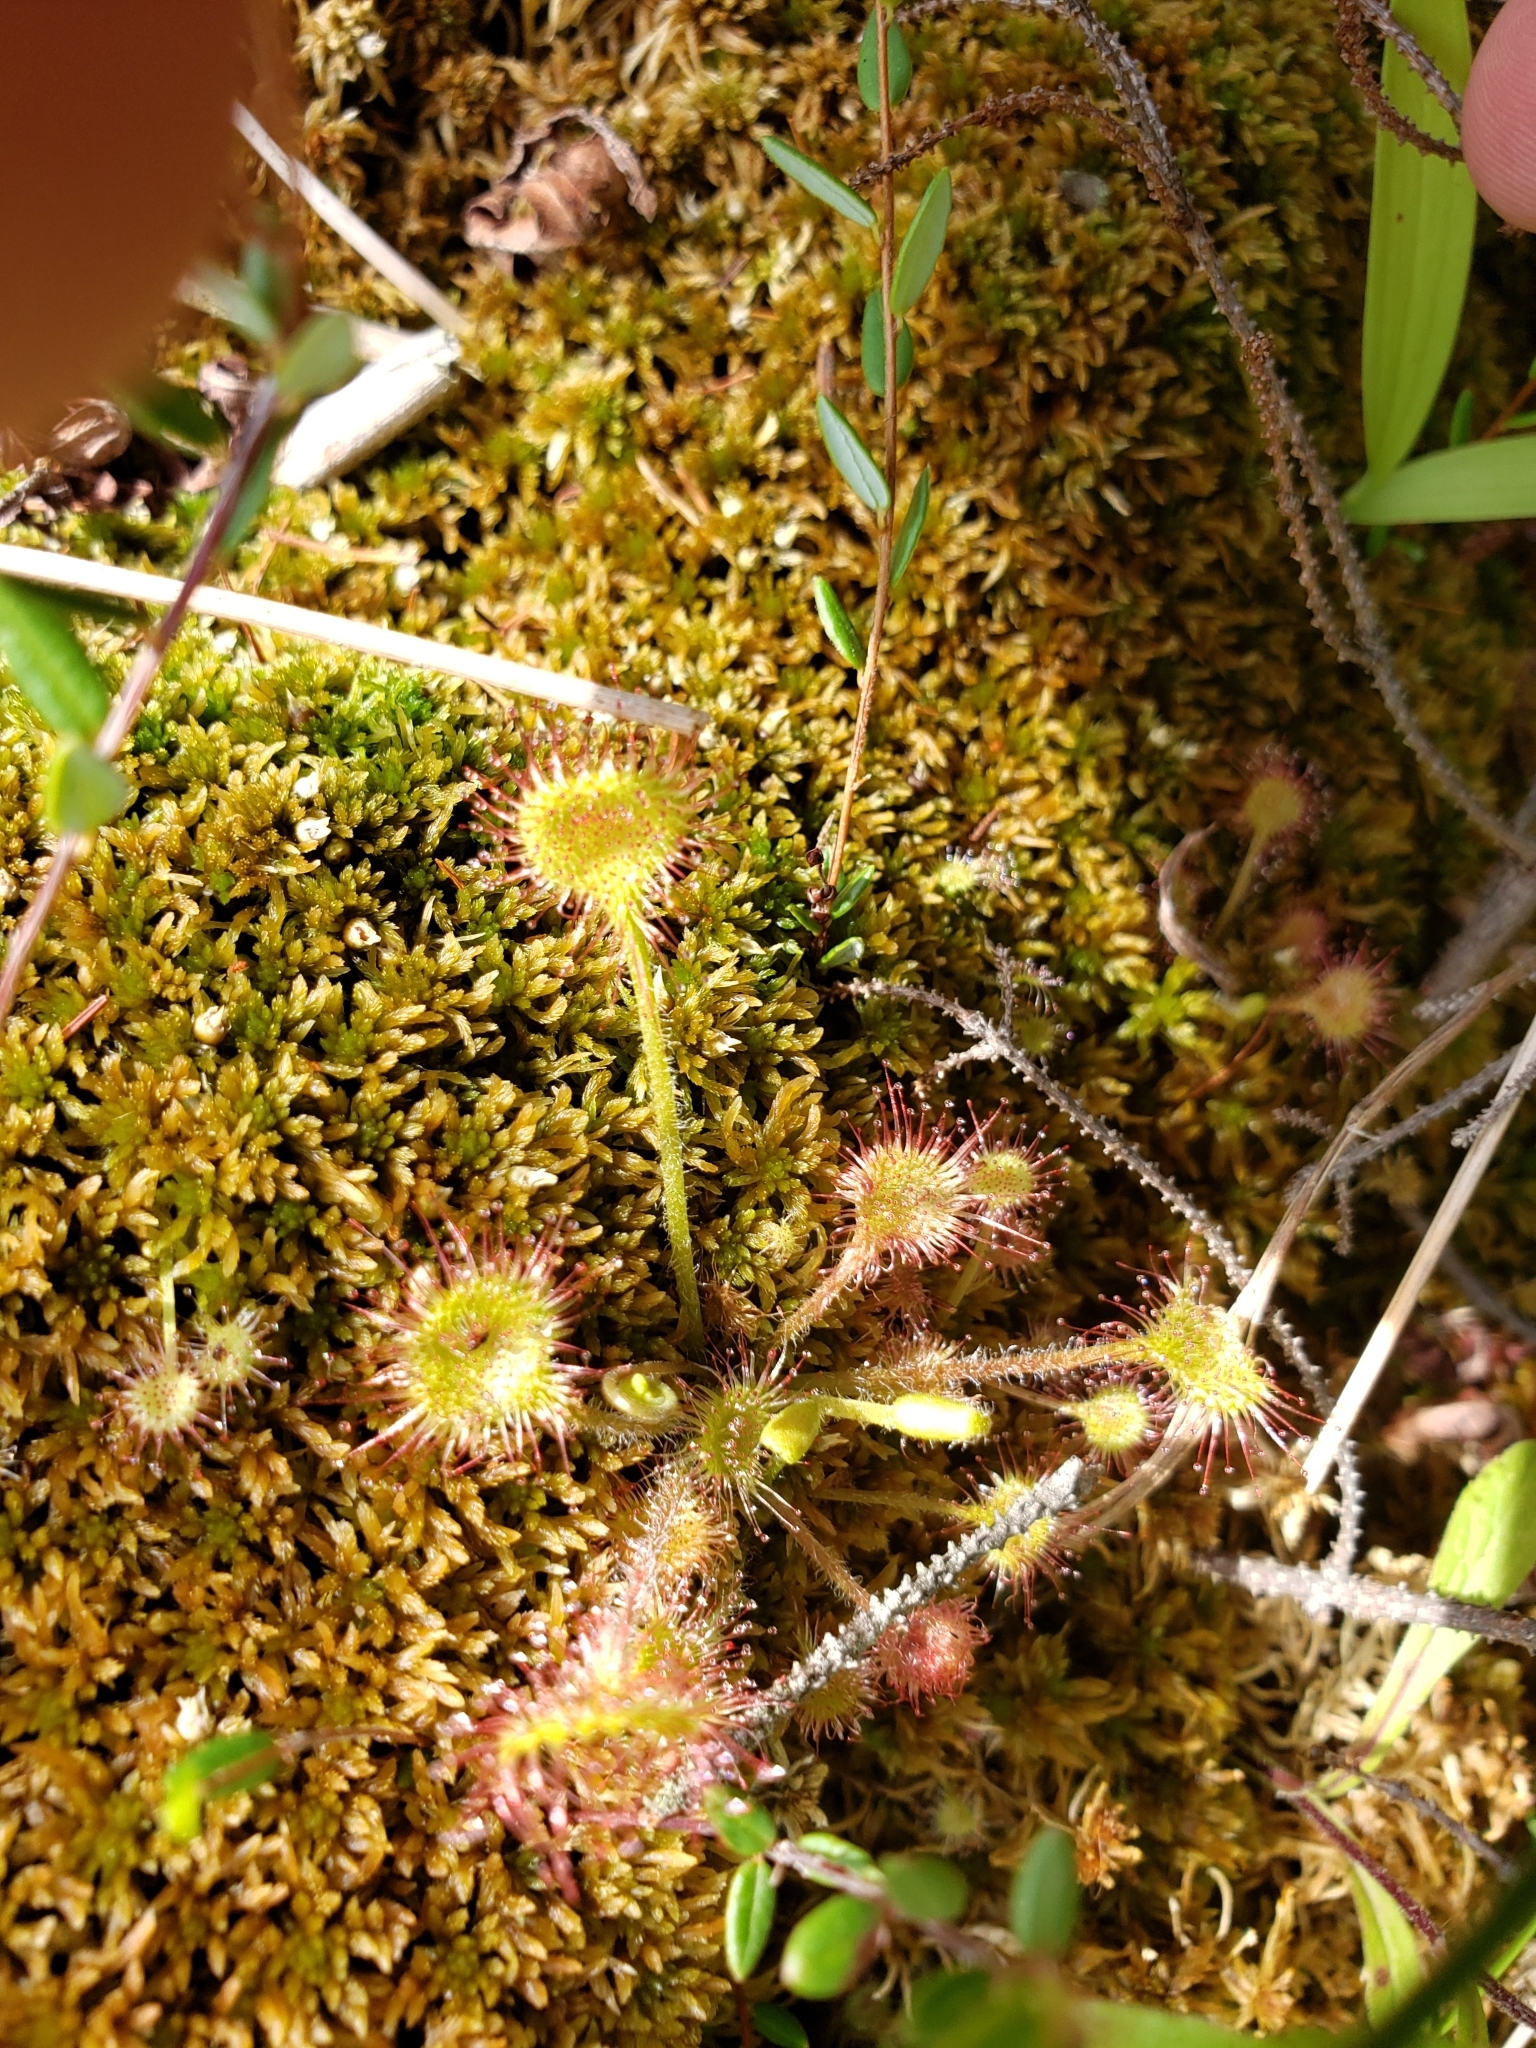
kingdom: Plantae
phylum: Tracheophyta
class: Magnoliopsida
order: Caryophyllales
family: Droseraceae
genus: Drosera
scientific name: Drosera rotundifolia
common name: Round-leaved sundew
